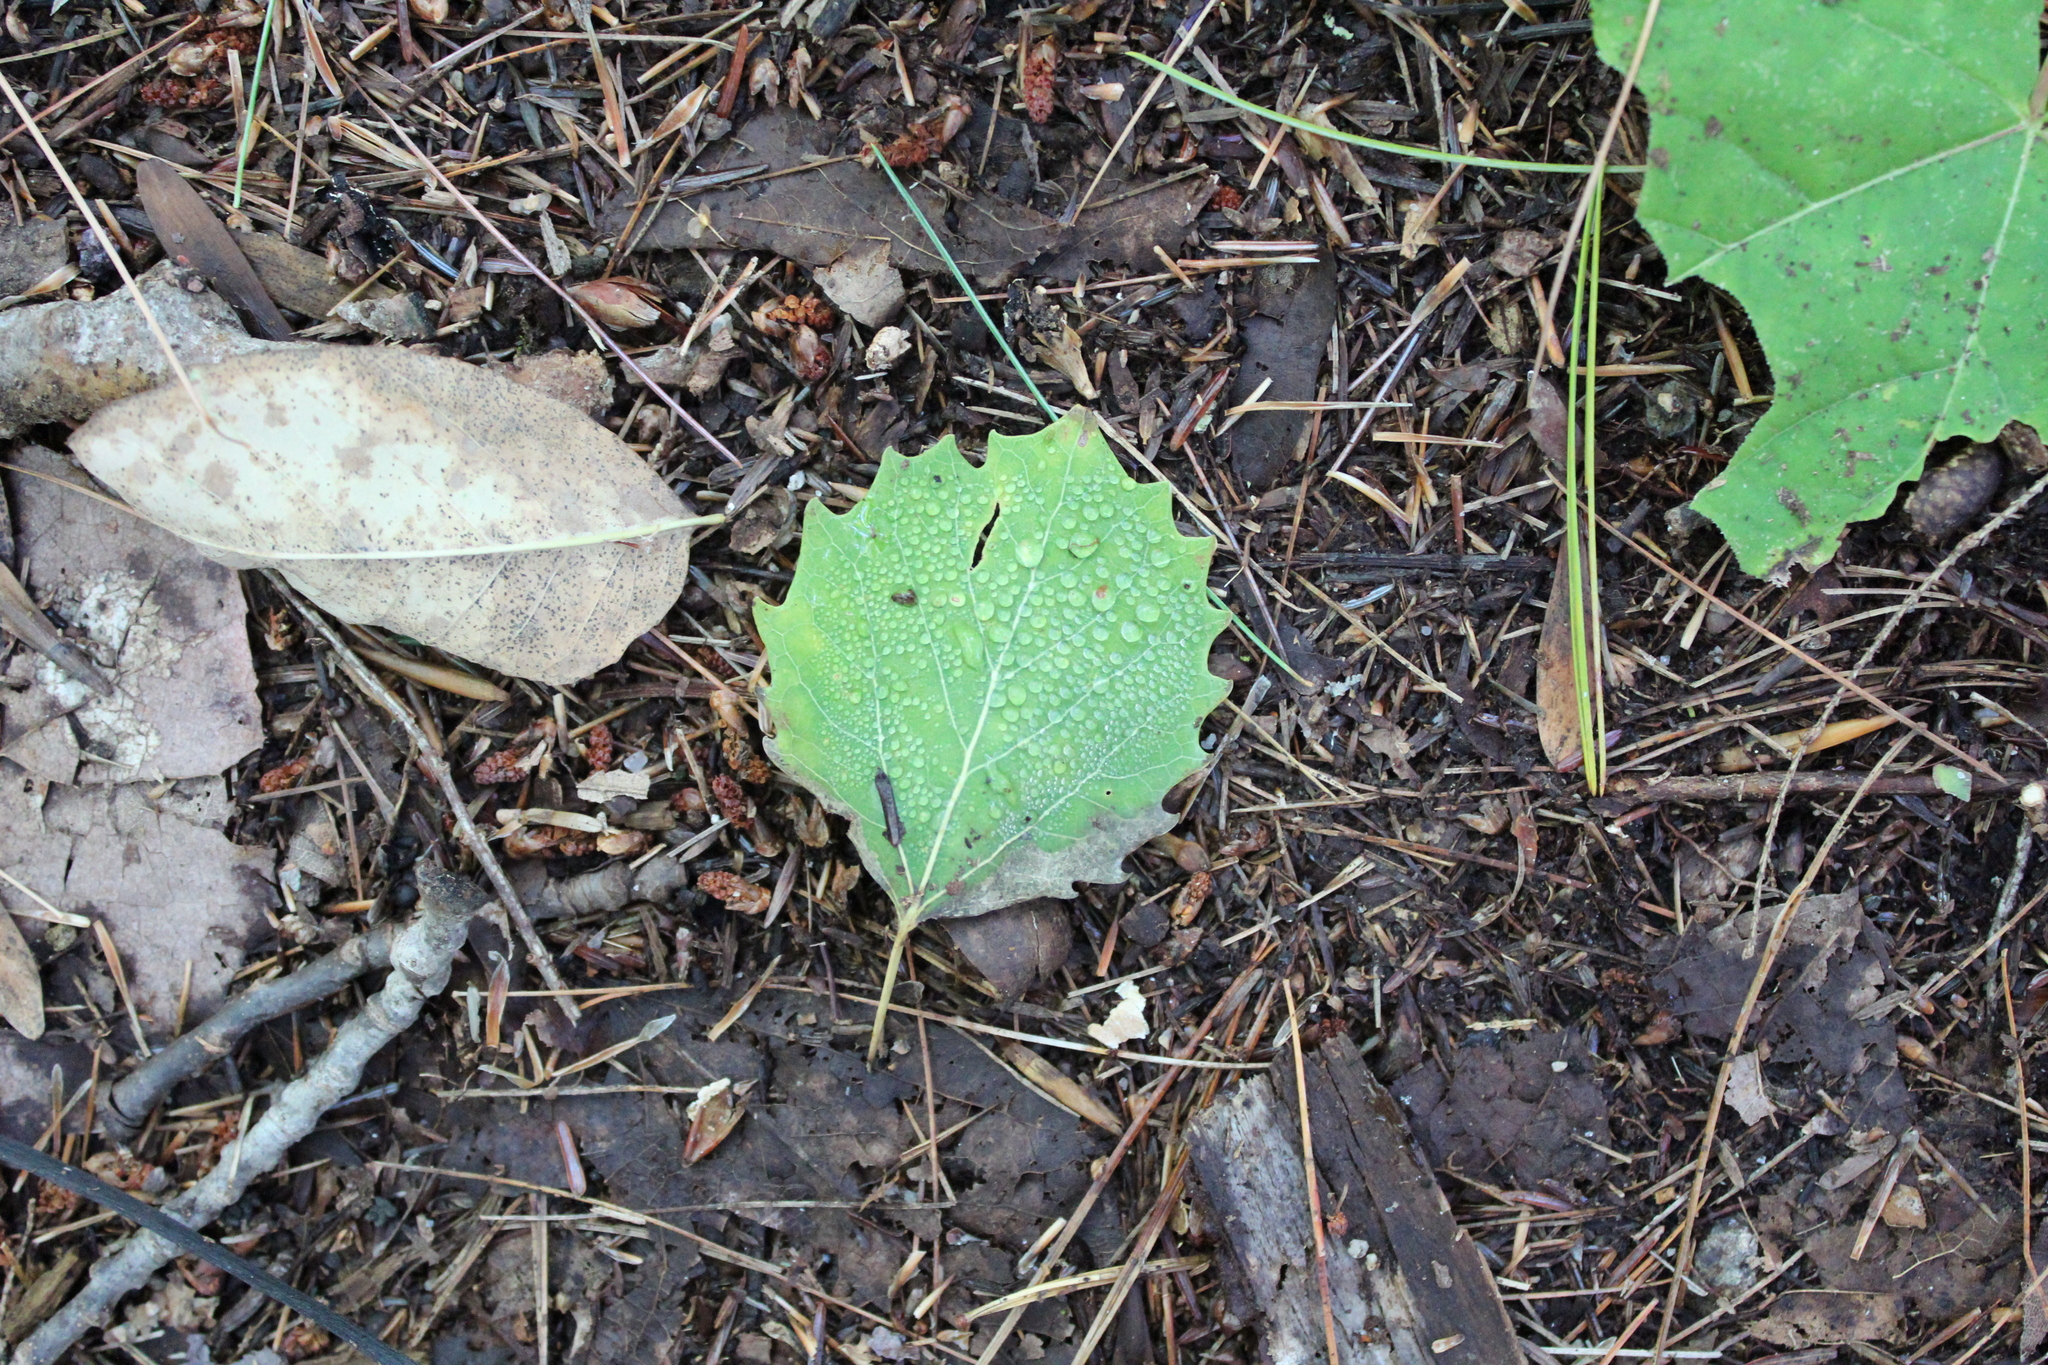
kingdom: Plantae
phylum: Tracheophyta
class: Magnoliopsida
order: Malpighiales
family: Salicaceae
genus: Populus
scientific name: Populus grandidentata
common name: Bigtooth aspen
